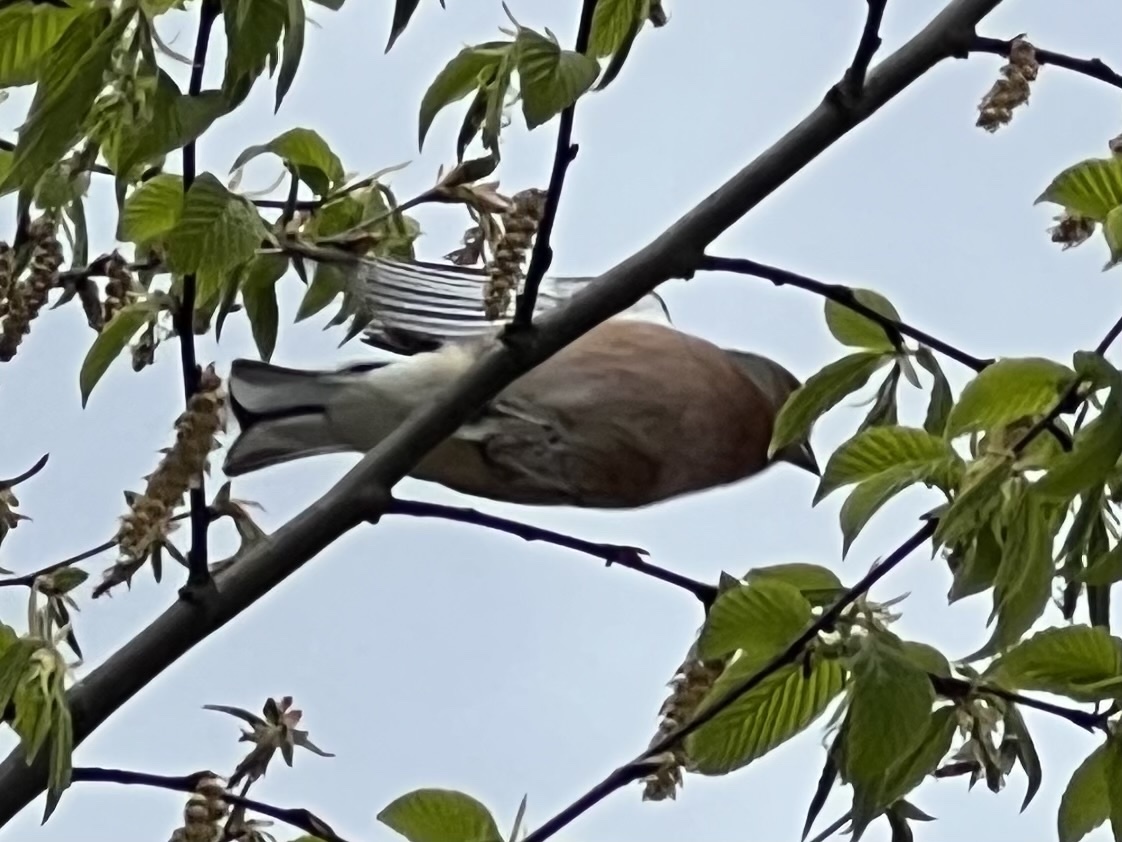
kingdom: Animalia
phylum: Chordata
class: Aves
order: Passeriformes
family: Fringillidae
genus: Fringilla
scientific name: Fringilla coelebs
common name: Common chaffinch
